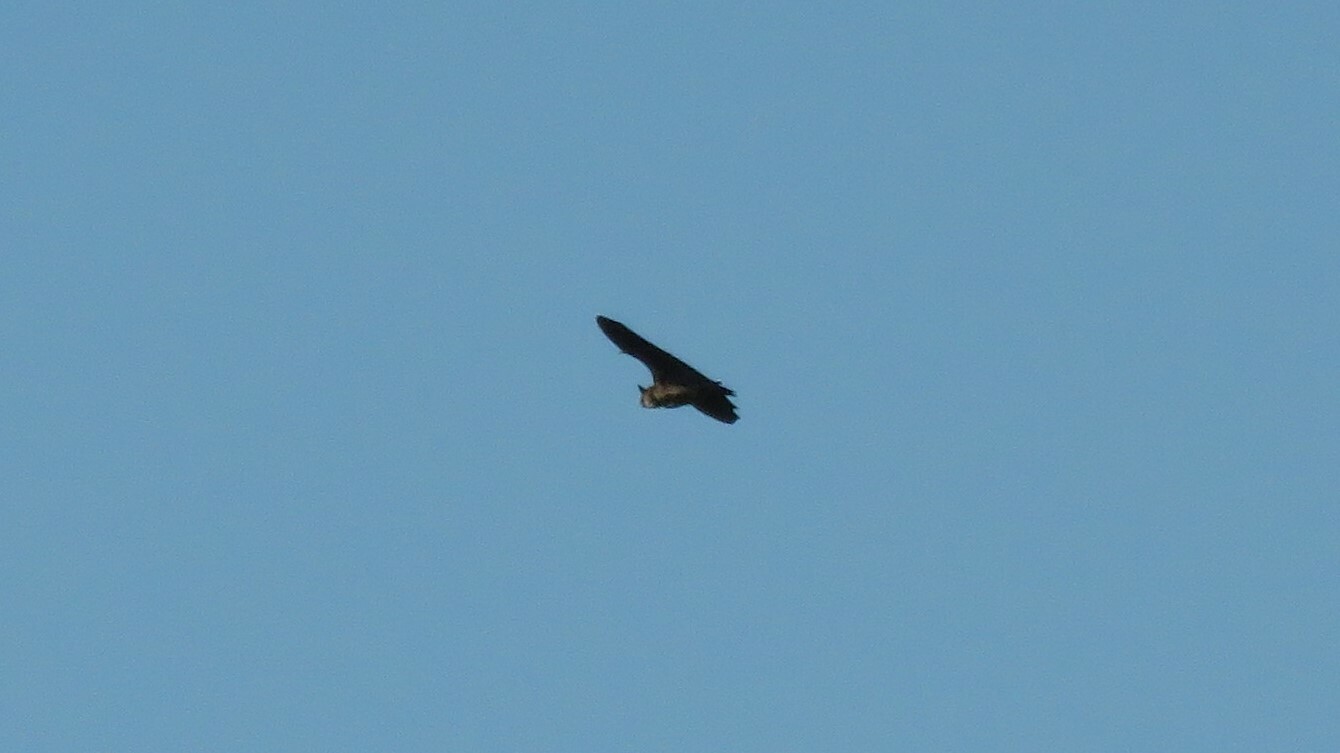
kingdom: Animalia
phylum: Chordata
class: Mammalia
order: Chiroptera
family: Vespertilionidae
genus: Eptesicus
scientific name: Eptesicus fuscus
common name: Big brown bat
